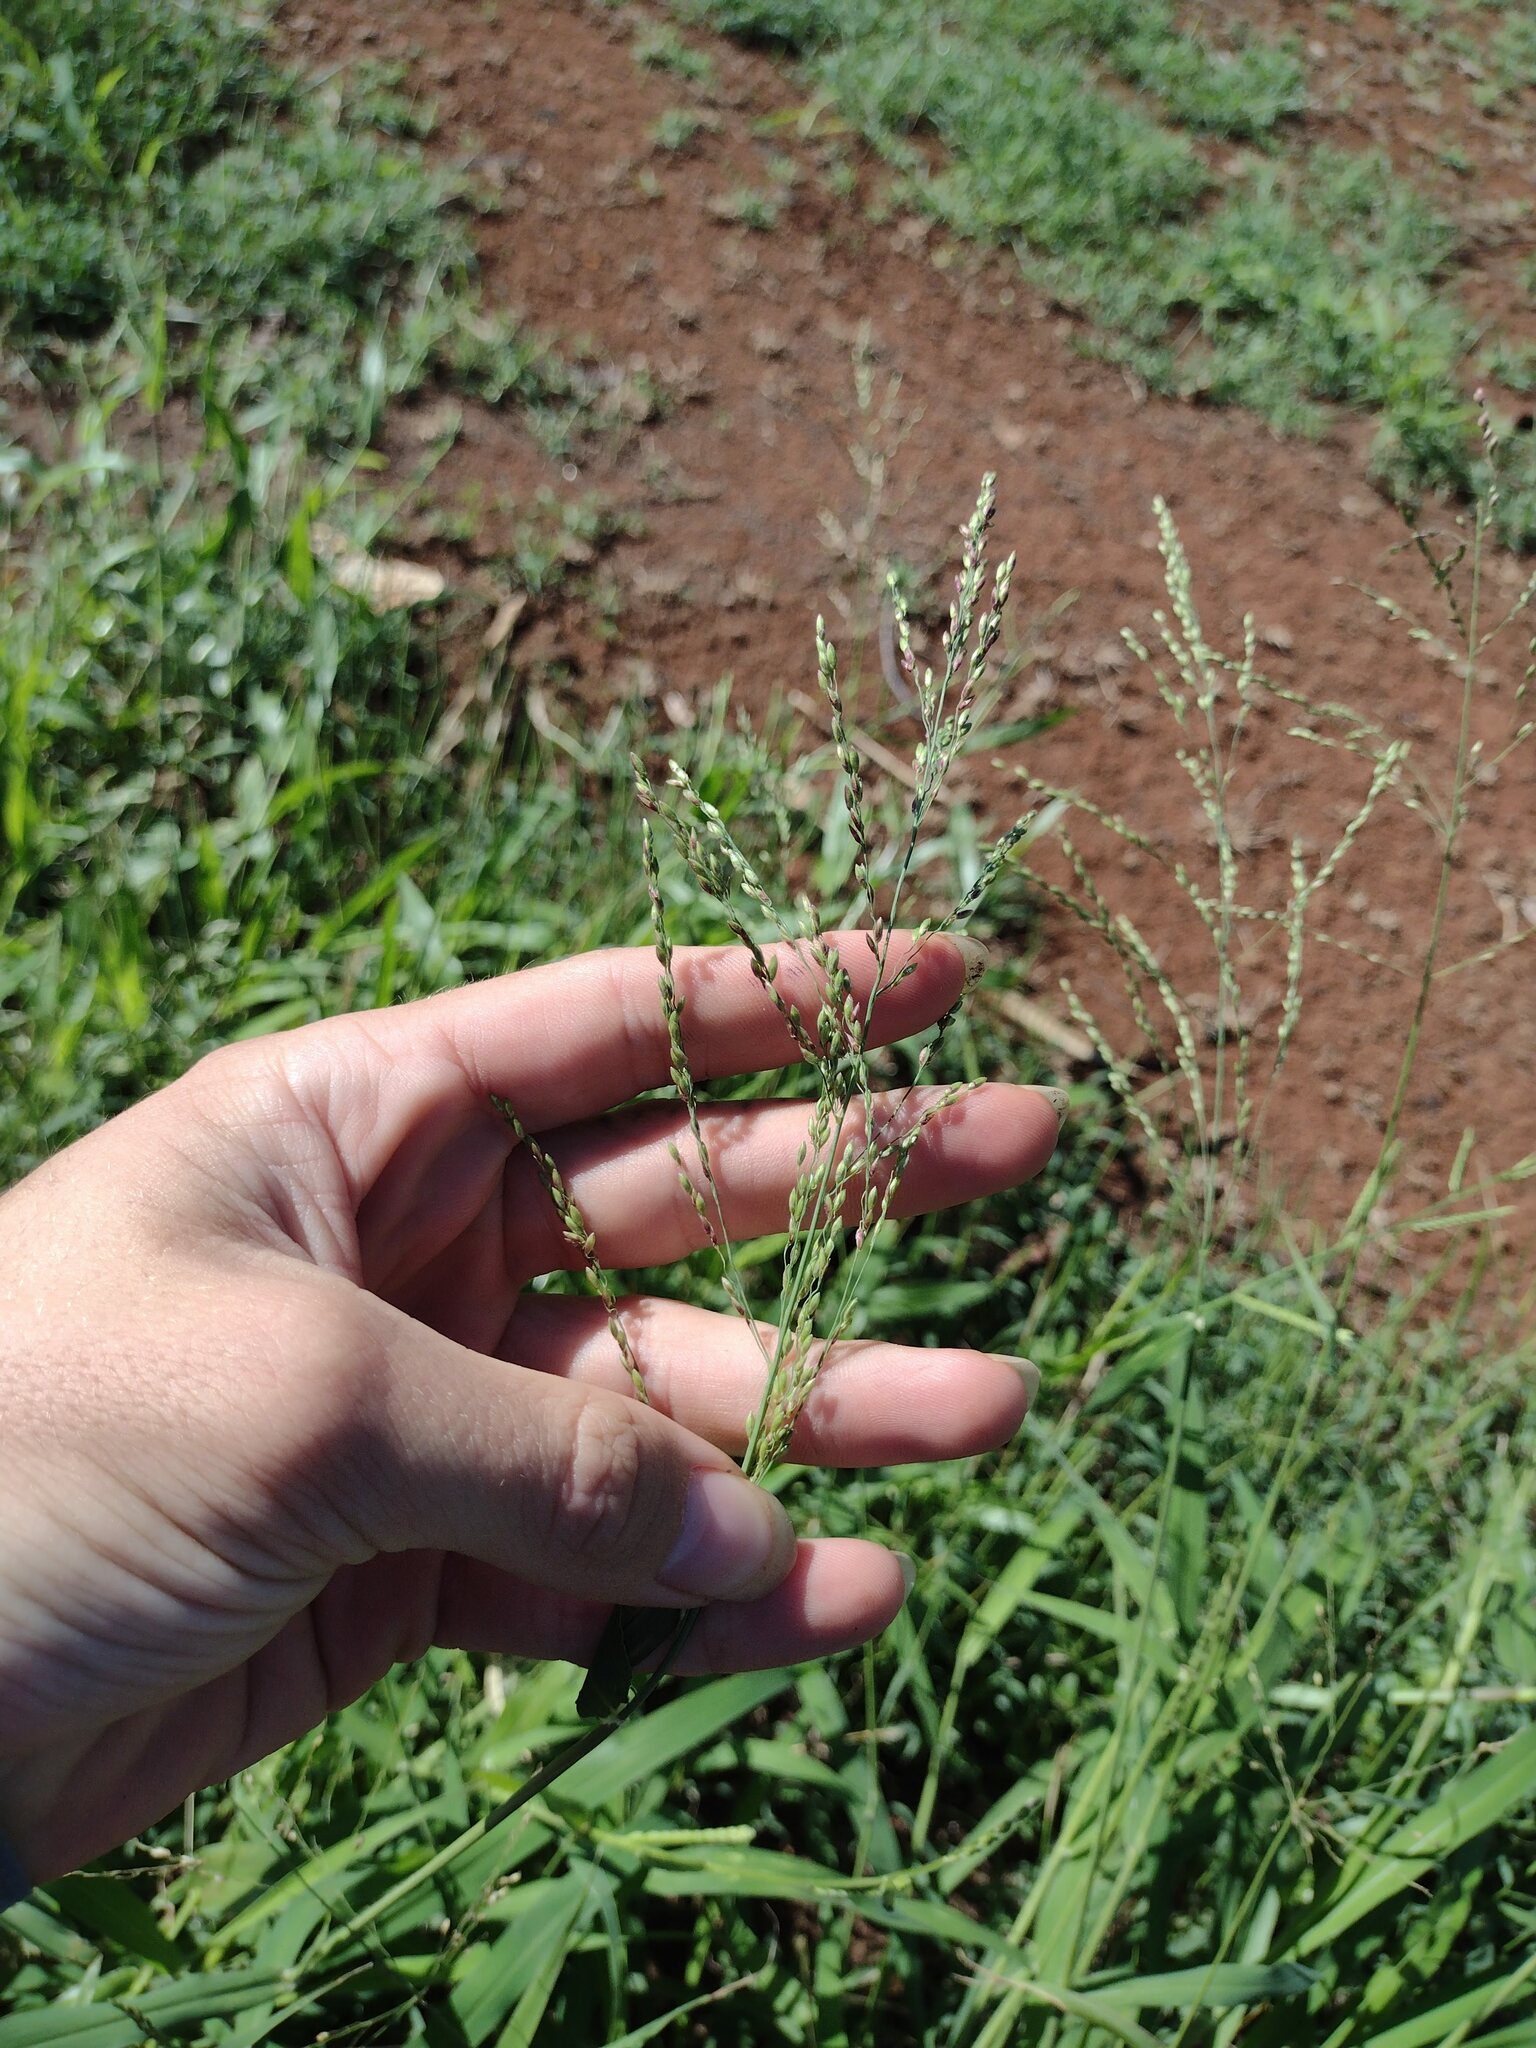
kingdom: Plantae
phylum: Tracheophyta
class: Liliopsida
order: Poales
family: Poaceae
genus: Megathyrsus
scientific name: Megathyrsus maximus
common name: Guineagrass
